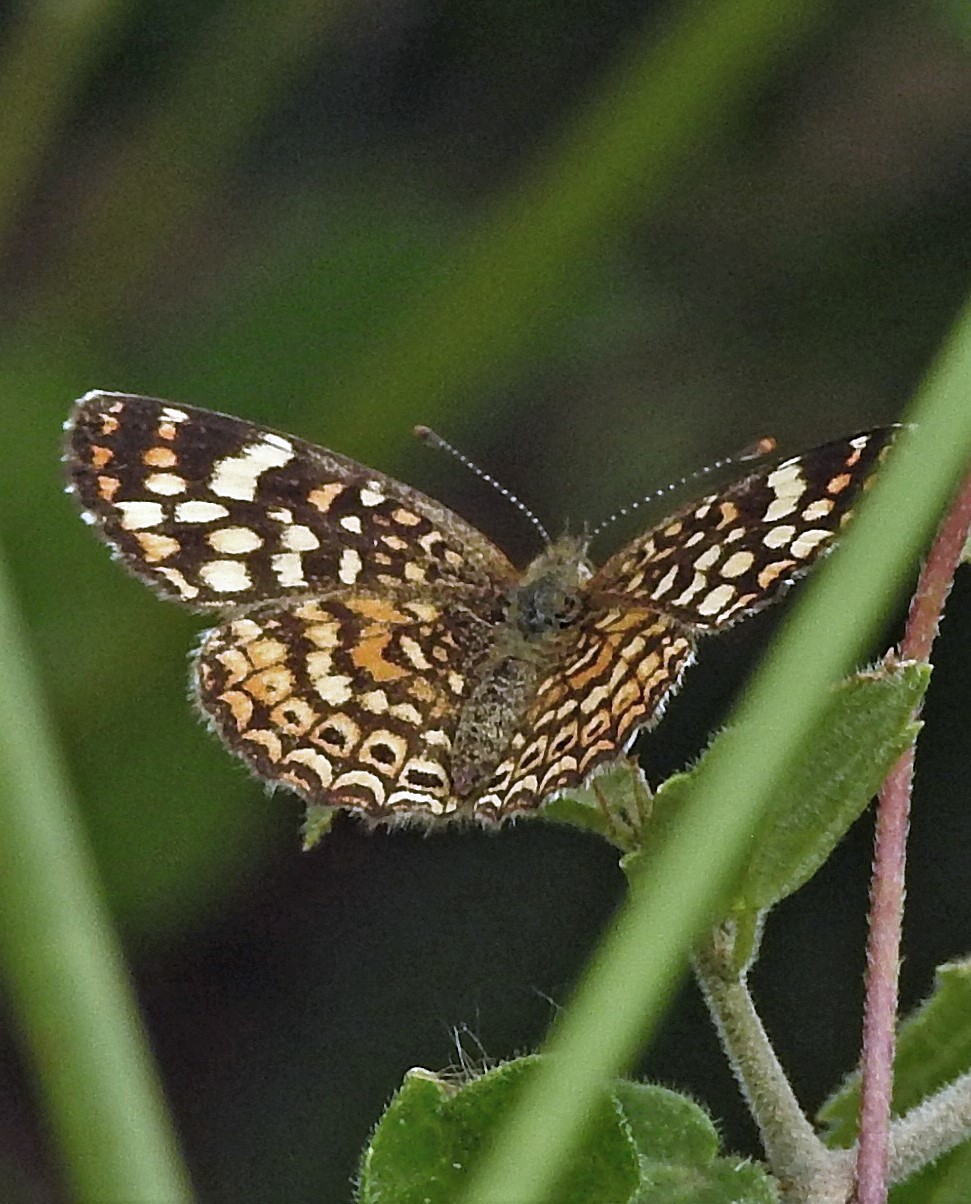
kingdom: Animalia
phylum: Arthropoda
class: Insecta
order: Lepidoptera
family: Nymphalidae
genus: Phystis
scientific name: Phystis simois
